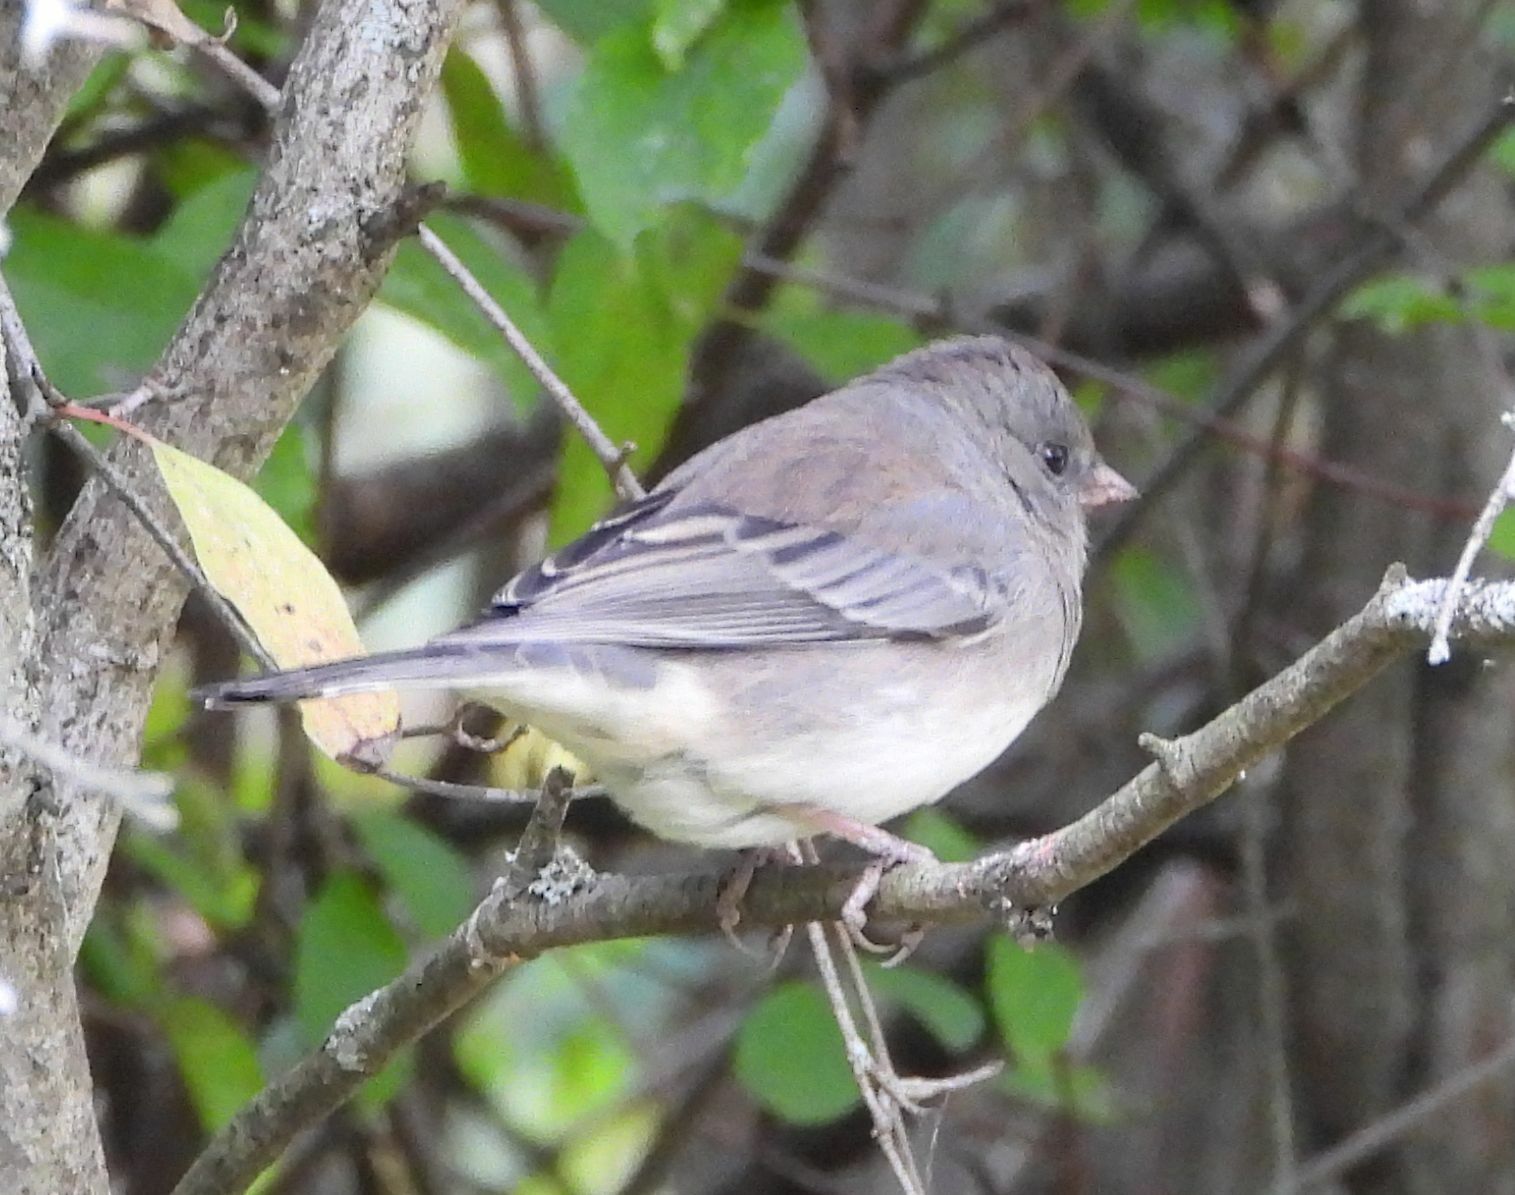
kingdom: Animalia
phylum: Chordata
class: Aves
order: Passeriformes
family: Passerellidae
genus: Junco
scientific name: Junco hyemalis
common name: Dark-eyed junco
